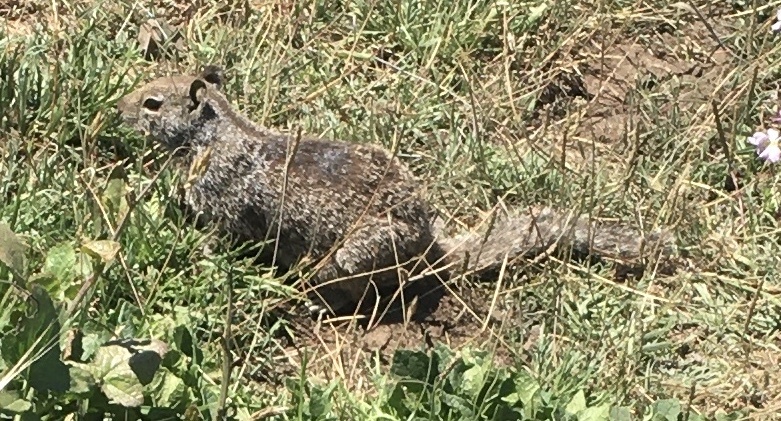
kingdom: Animalia
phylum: Chordata
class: Mammalia
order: Rodentia
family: Sciuridae
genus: Otospermophilus
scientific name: Otospermophilus beecheyi
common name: California ground squirrel
